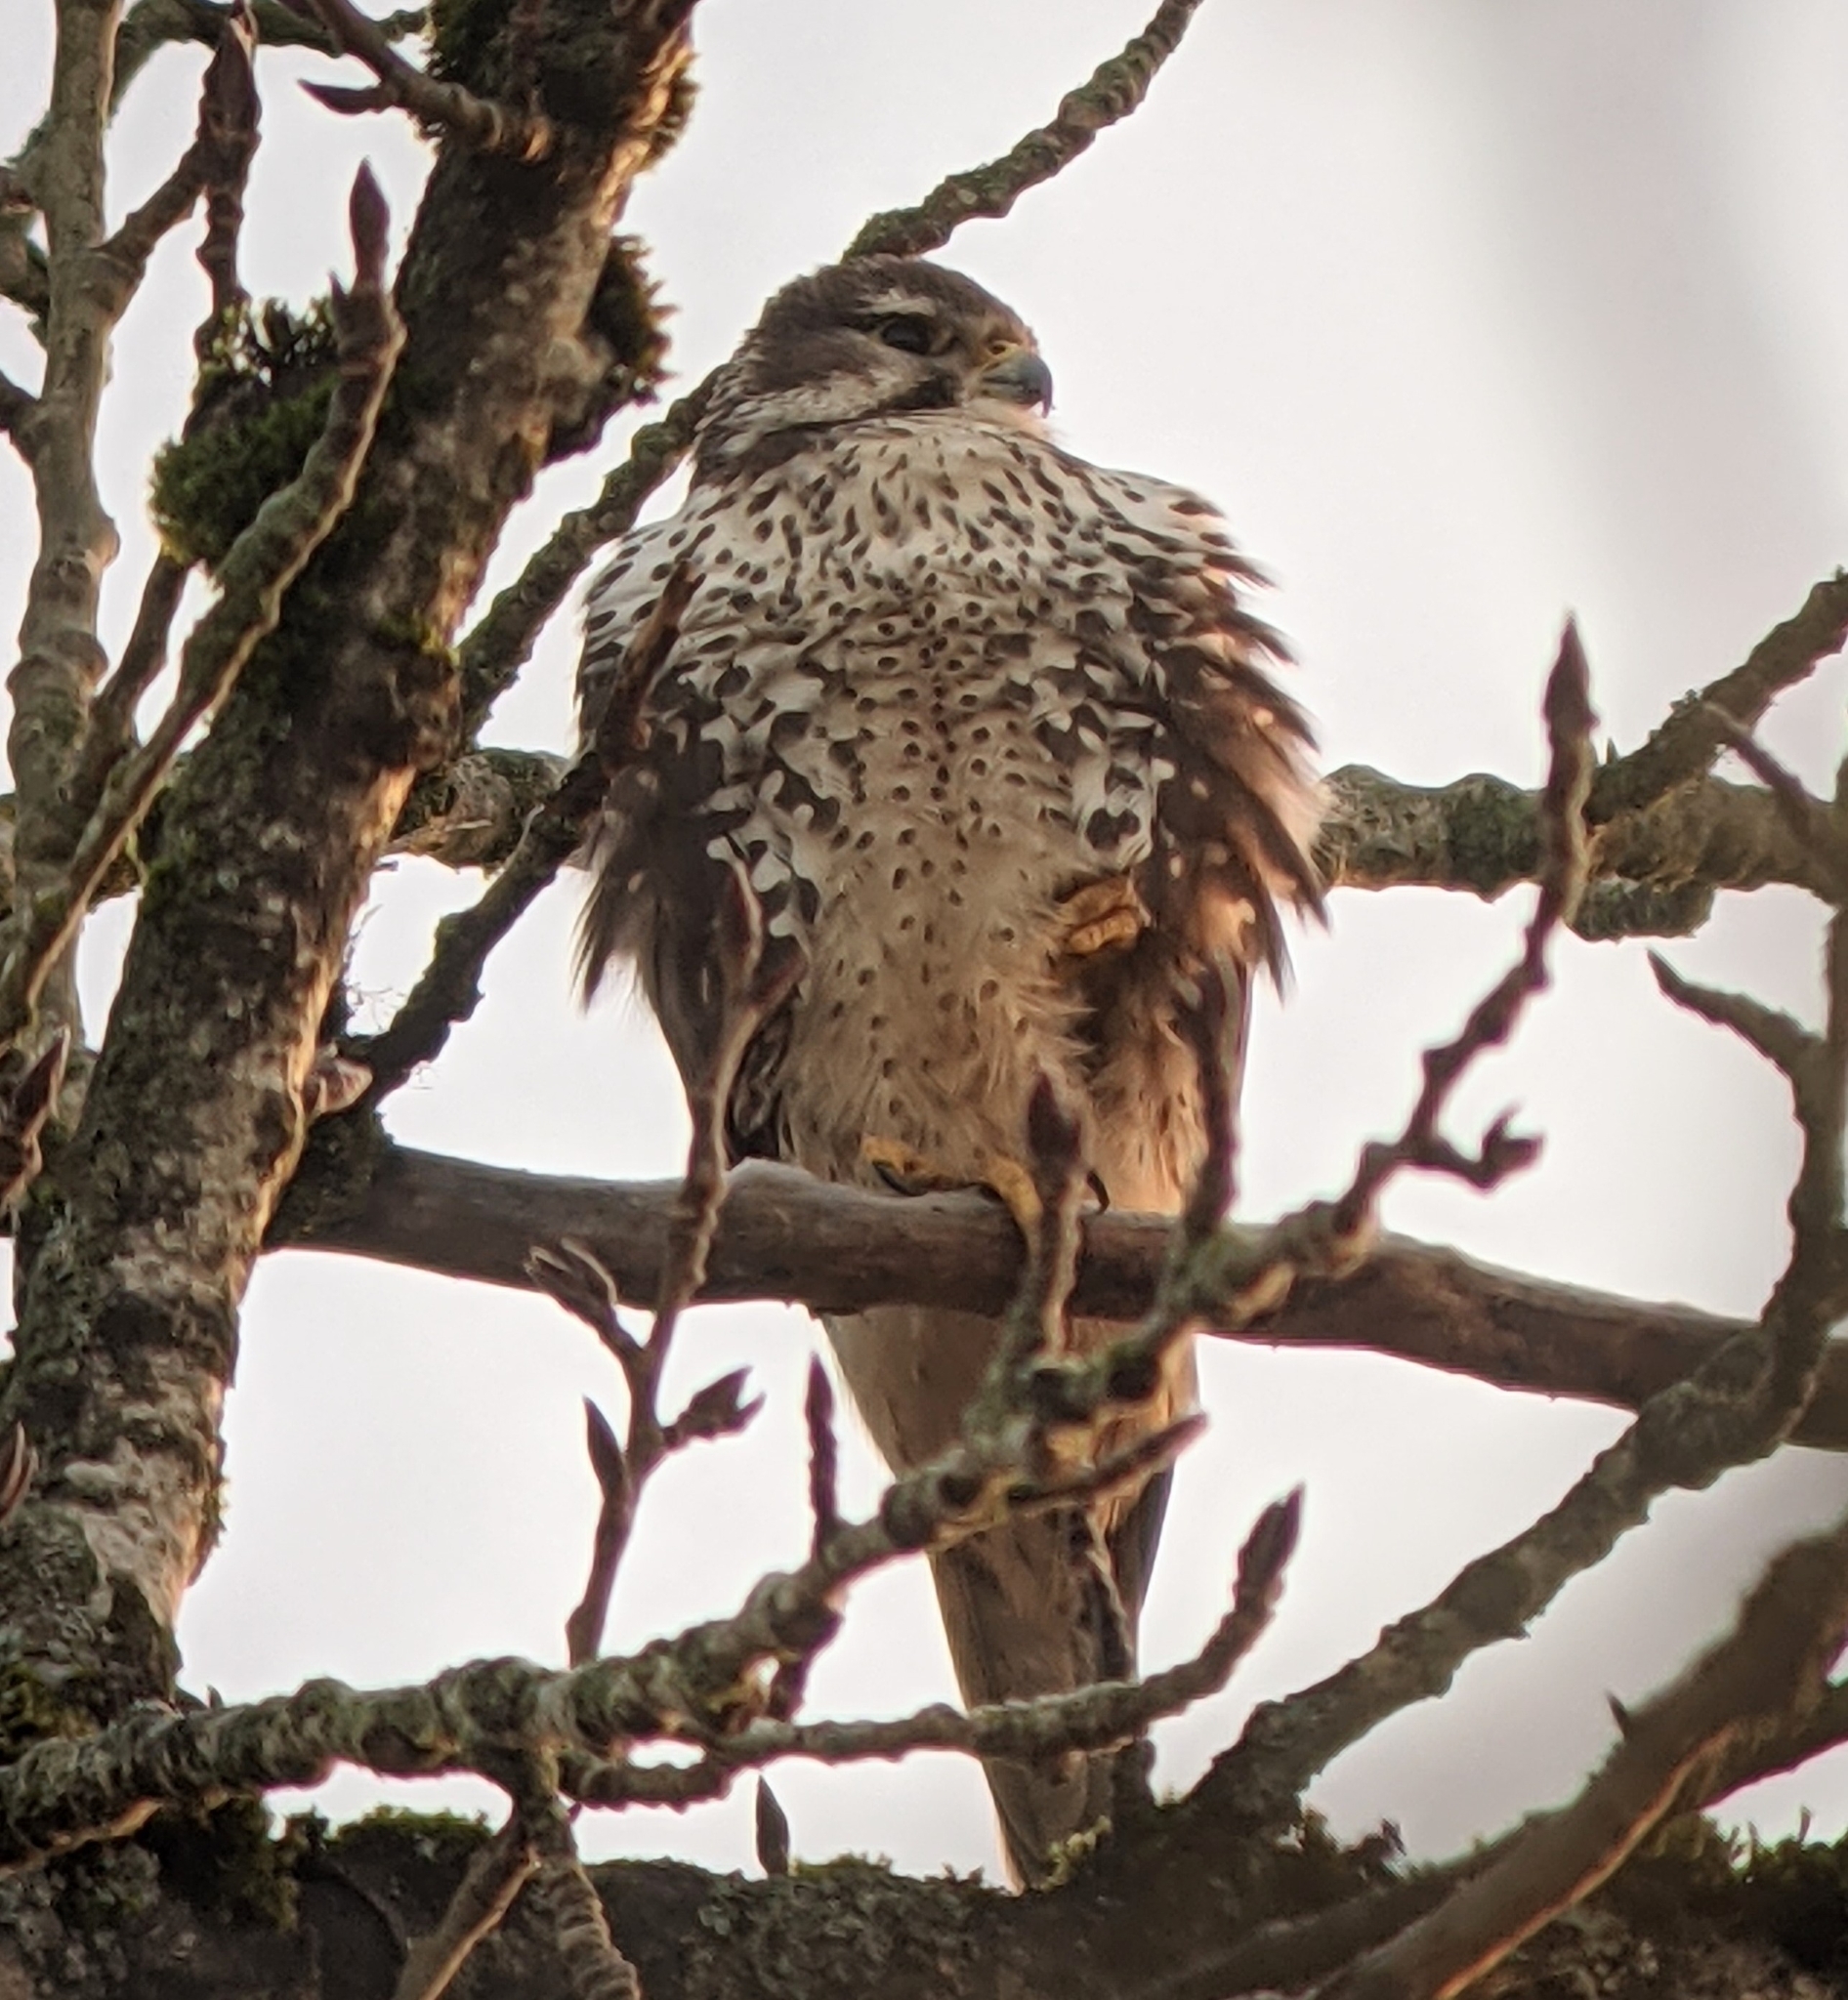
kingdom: Animalia
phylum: Chordata
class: Aves
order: Falconiformes
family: Falconidae
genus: Falco
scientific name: Falco mexicanus
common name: Prairie falcon
